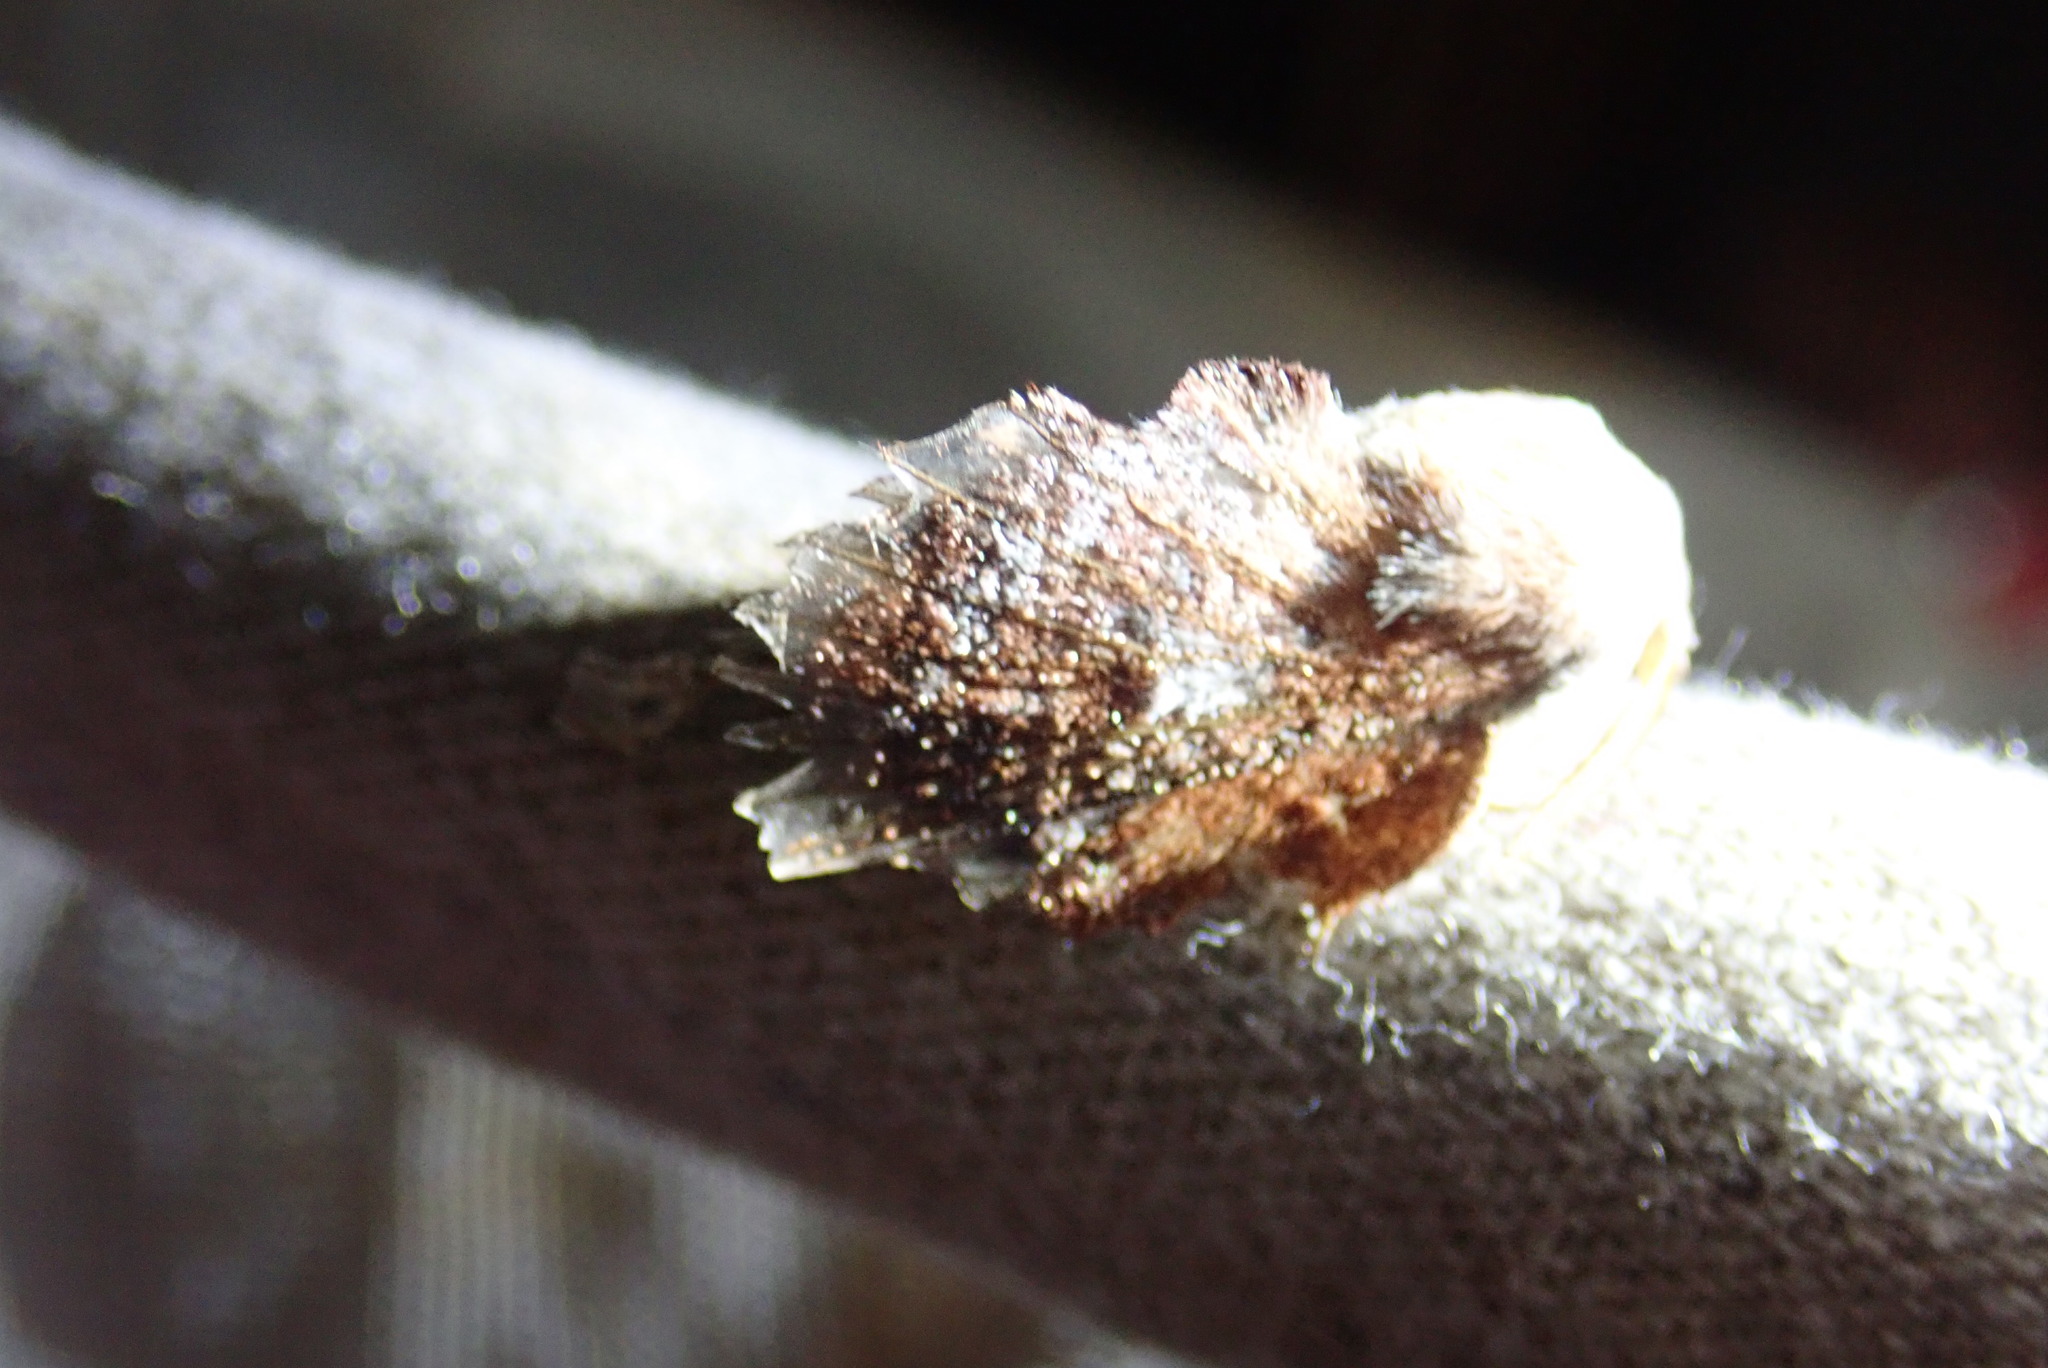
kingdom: Animalia
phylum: Arthropoda
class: Insecta
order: Lepidoptera
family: Lasiocampidae
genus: Phyllodesma
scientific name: Phyllodesma americana
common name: American lappet moth
